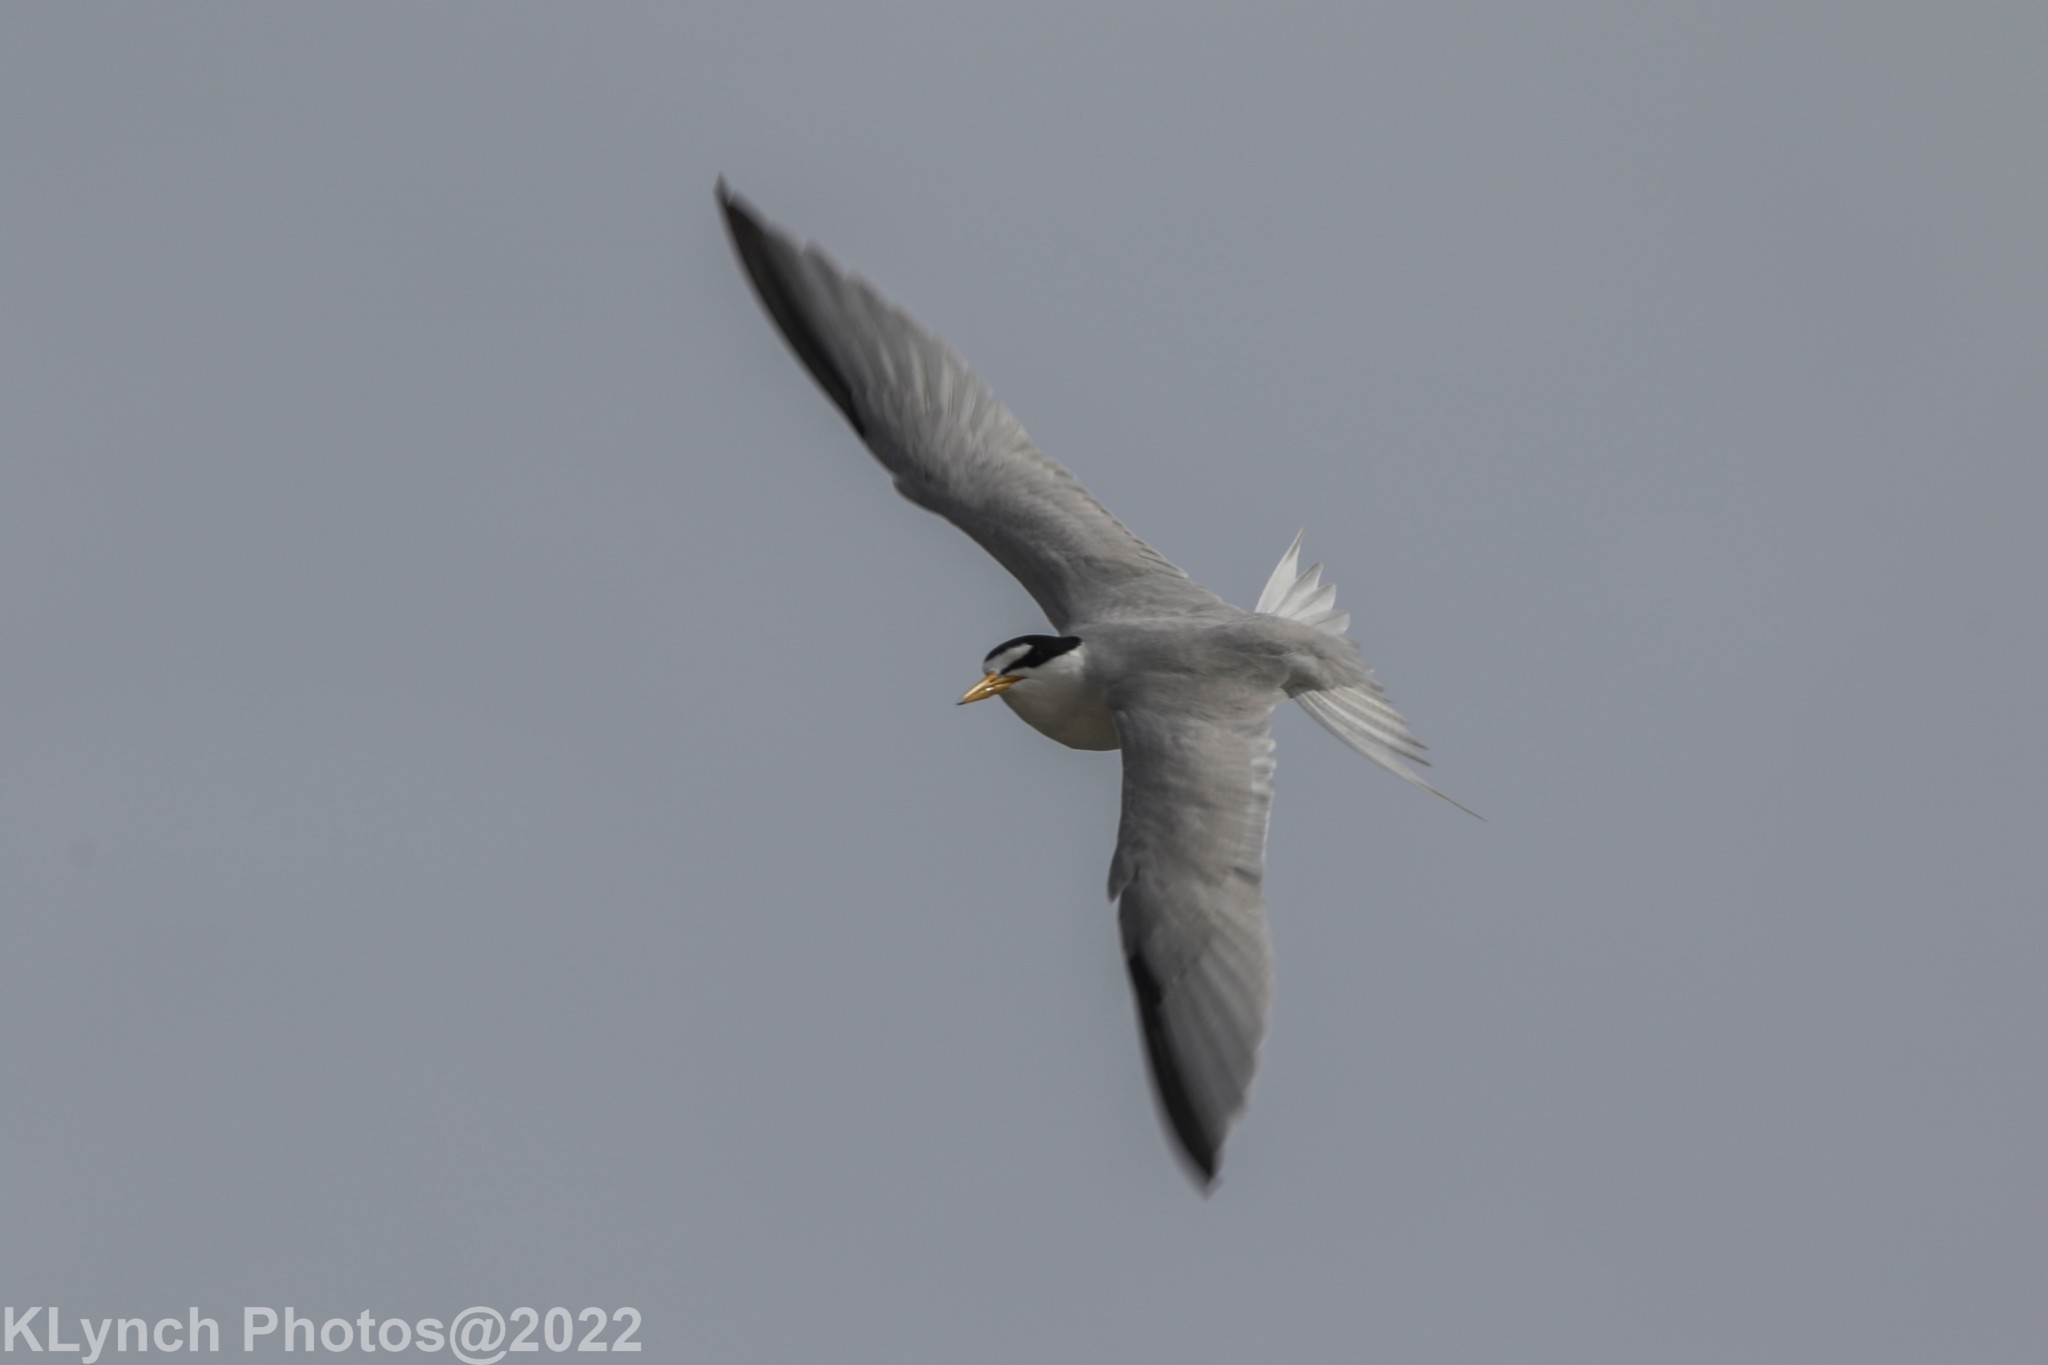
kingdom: Animalia
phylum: Chordata
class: Aves
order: Charadriiformes
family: Laridae
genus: Sternula
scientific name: Sternula antillarum
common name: Least tern
